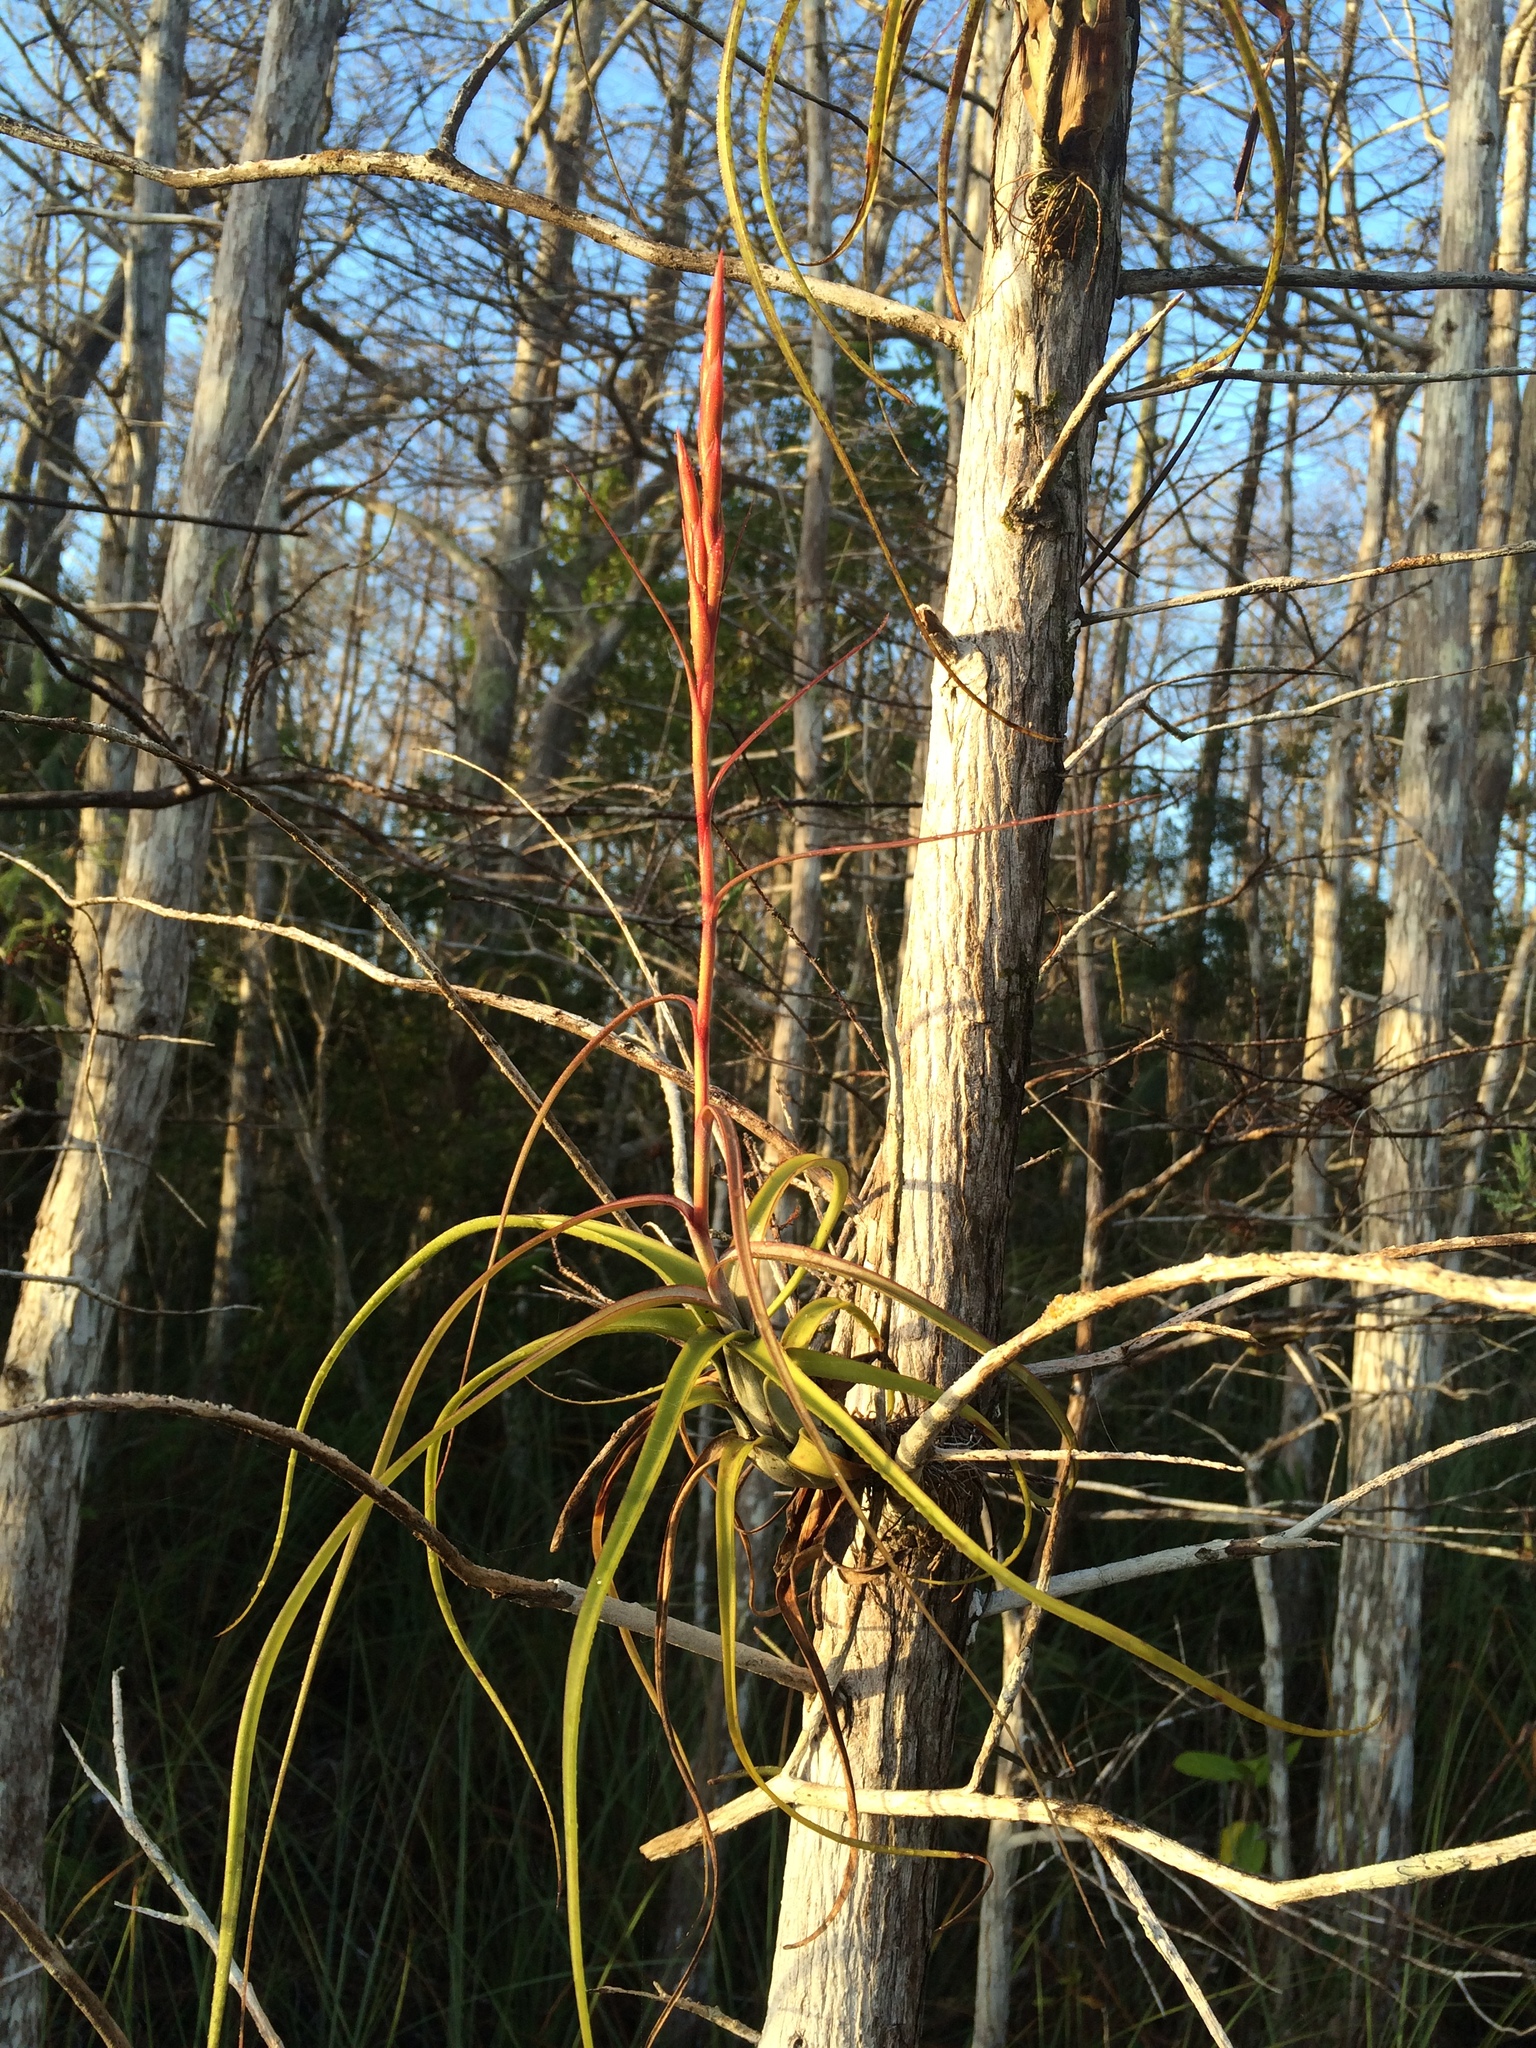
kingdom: Plantae
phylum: Tracheophyta
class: Liliopsida
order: Poales
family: Bromeliaceae
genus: Tillandsia
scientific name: Tillandsia balbisiana
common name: Northern needleleaf
